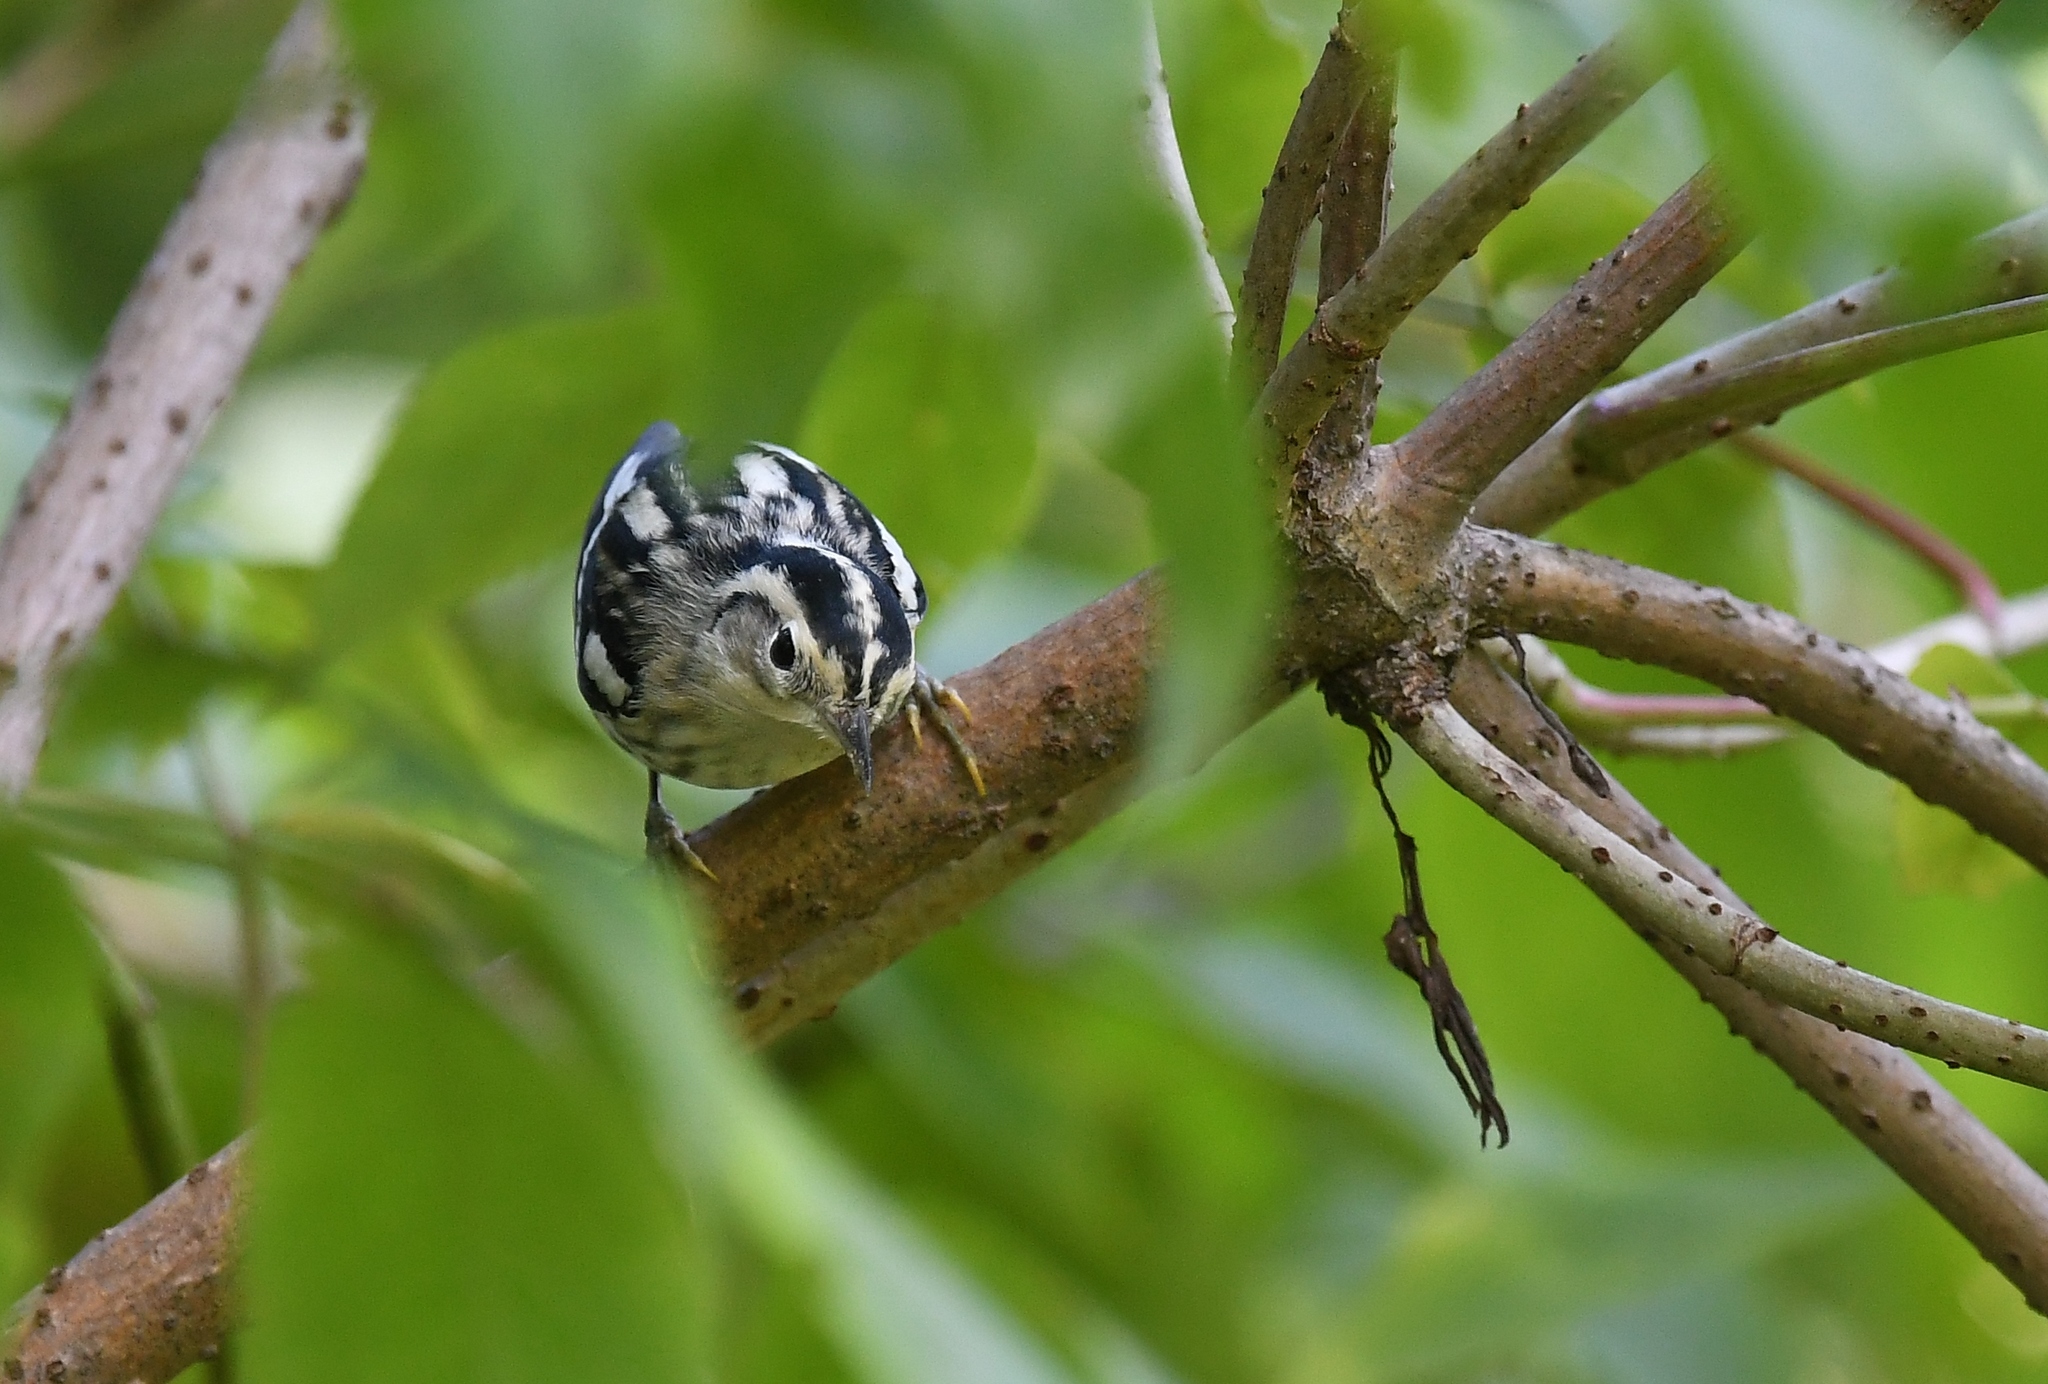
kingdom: Animalia
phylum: Chordata
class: Aves
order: Passeriformes
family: Parulidae
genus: Mniotilta
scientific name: Mniotilta varia
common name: Black-and-white warbler
